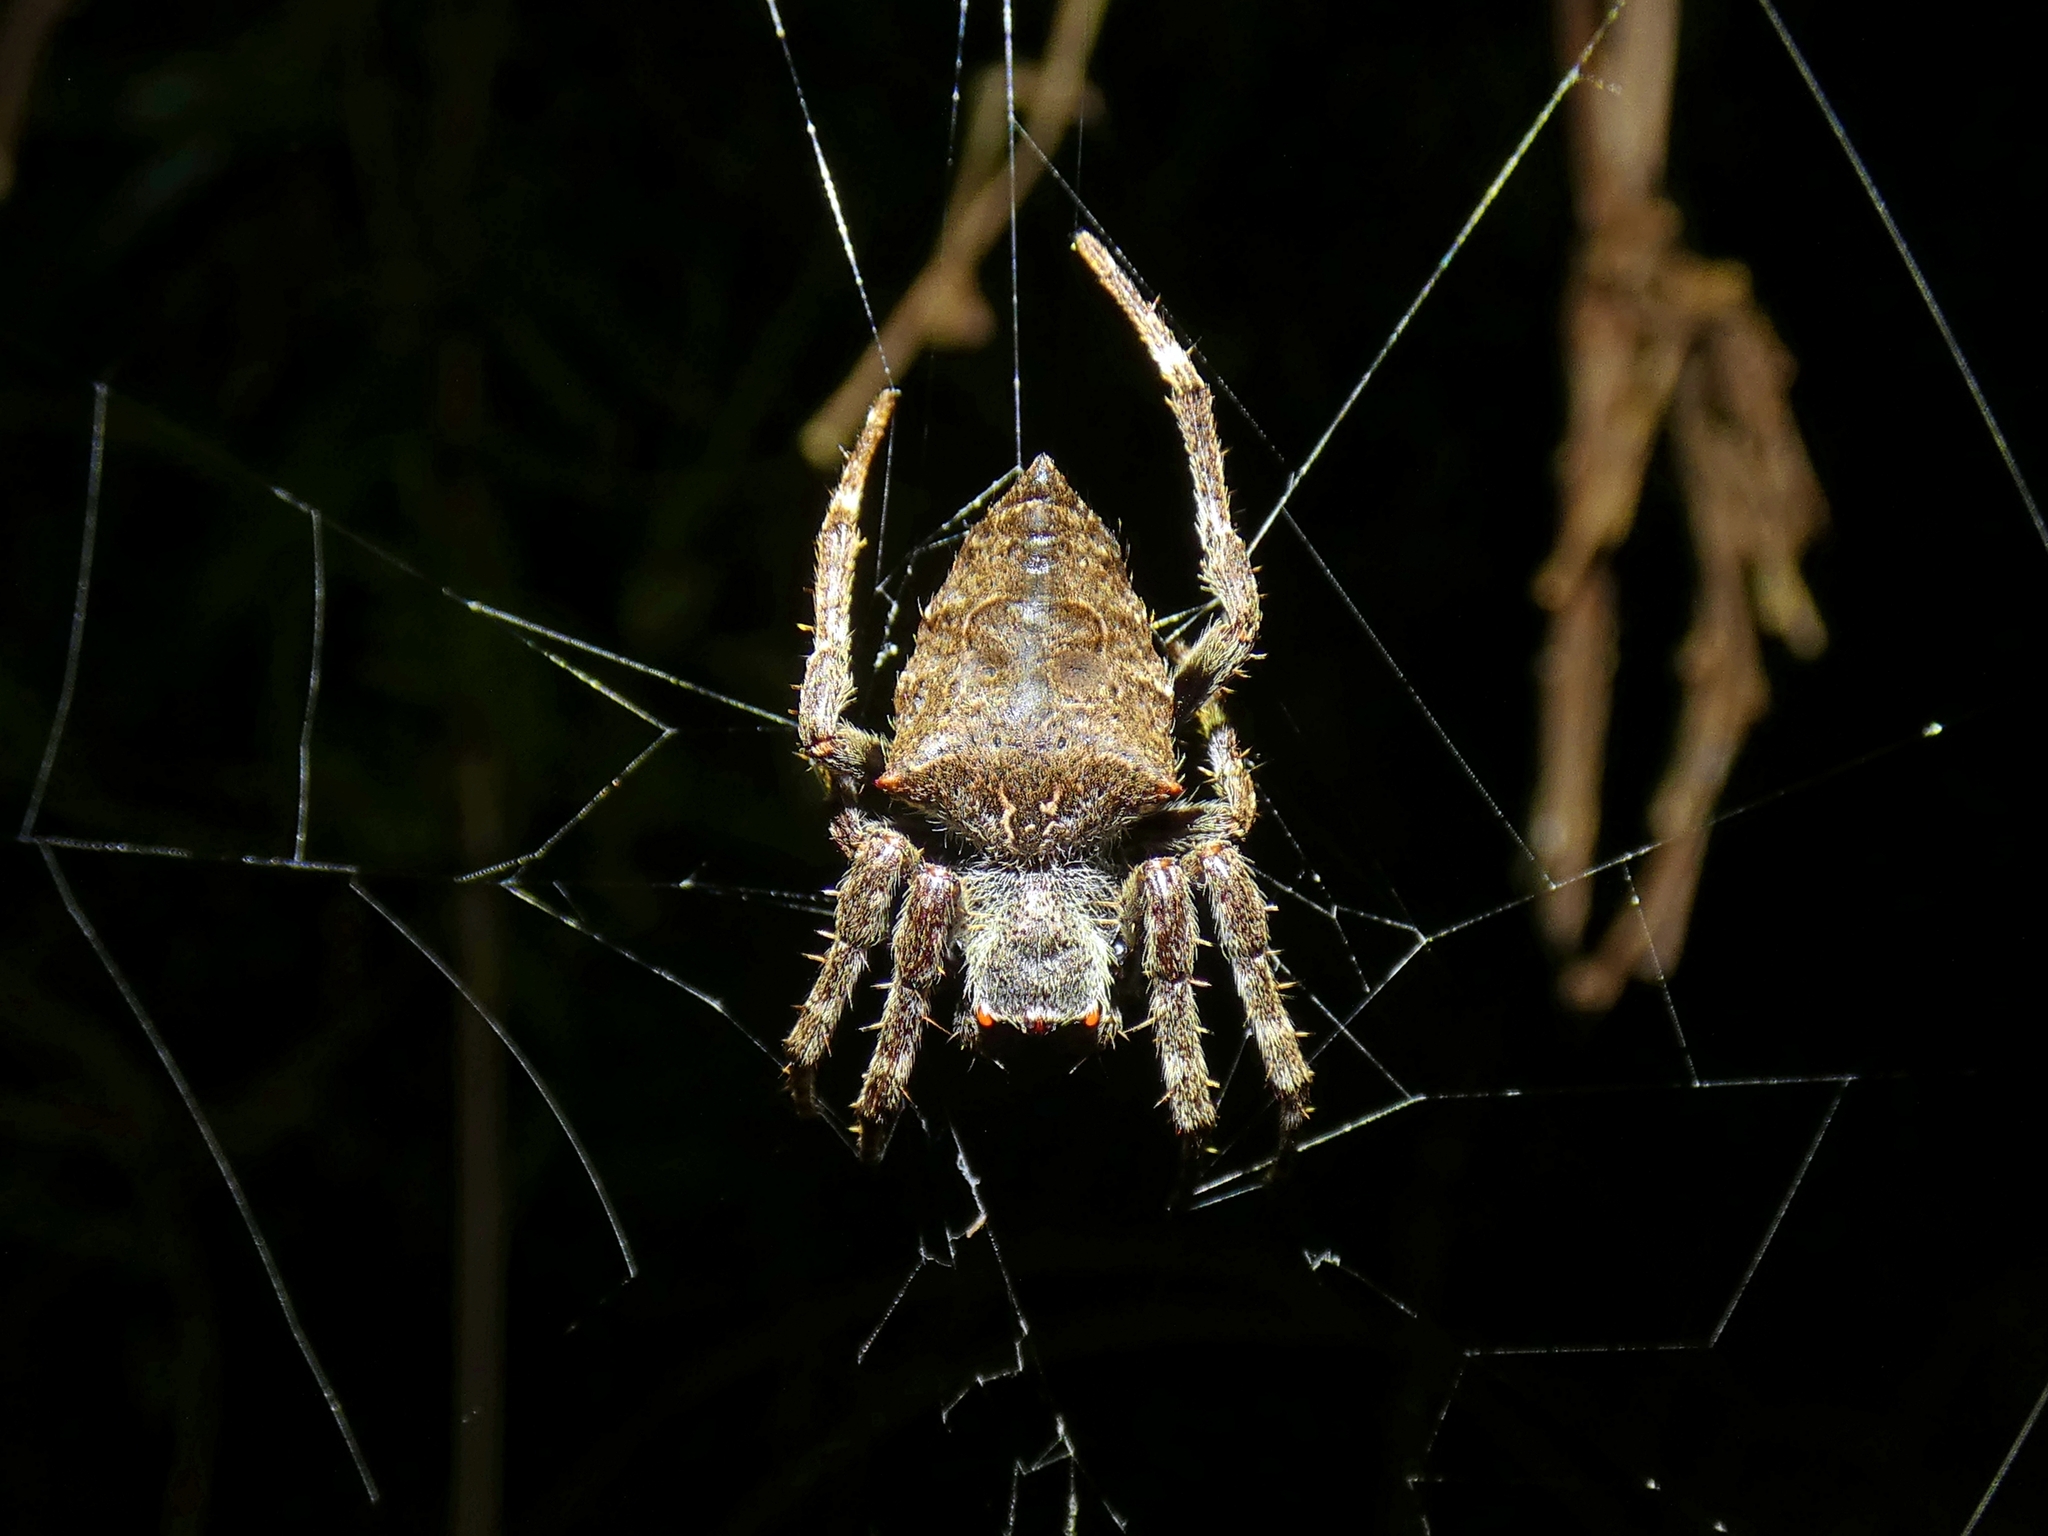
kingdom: Animalia
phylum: Arthropoda
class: Arachnida
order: Araneae
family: Araneidae
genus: Parawixia
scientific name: Parawixia dehaani
